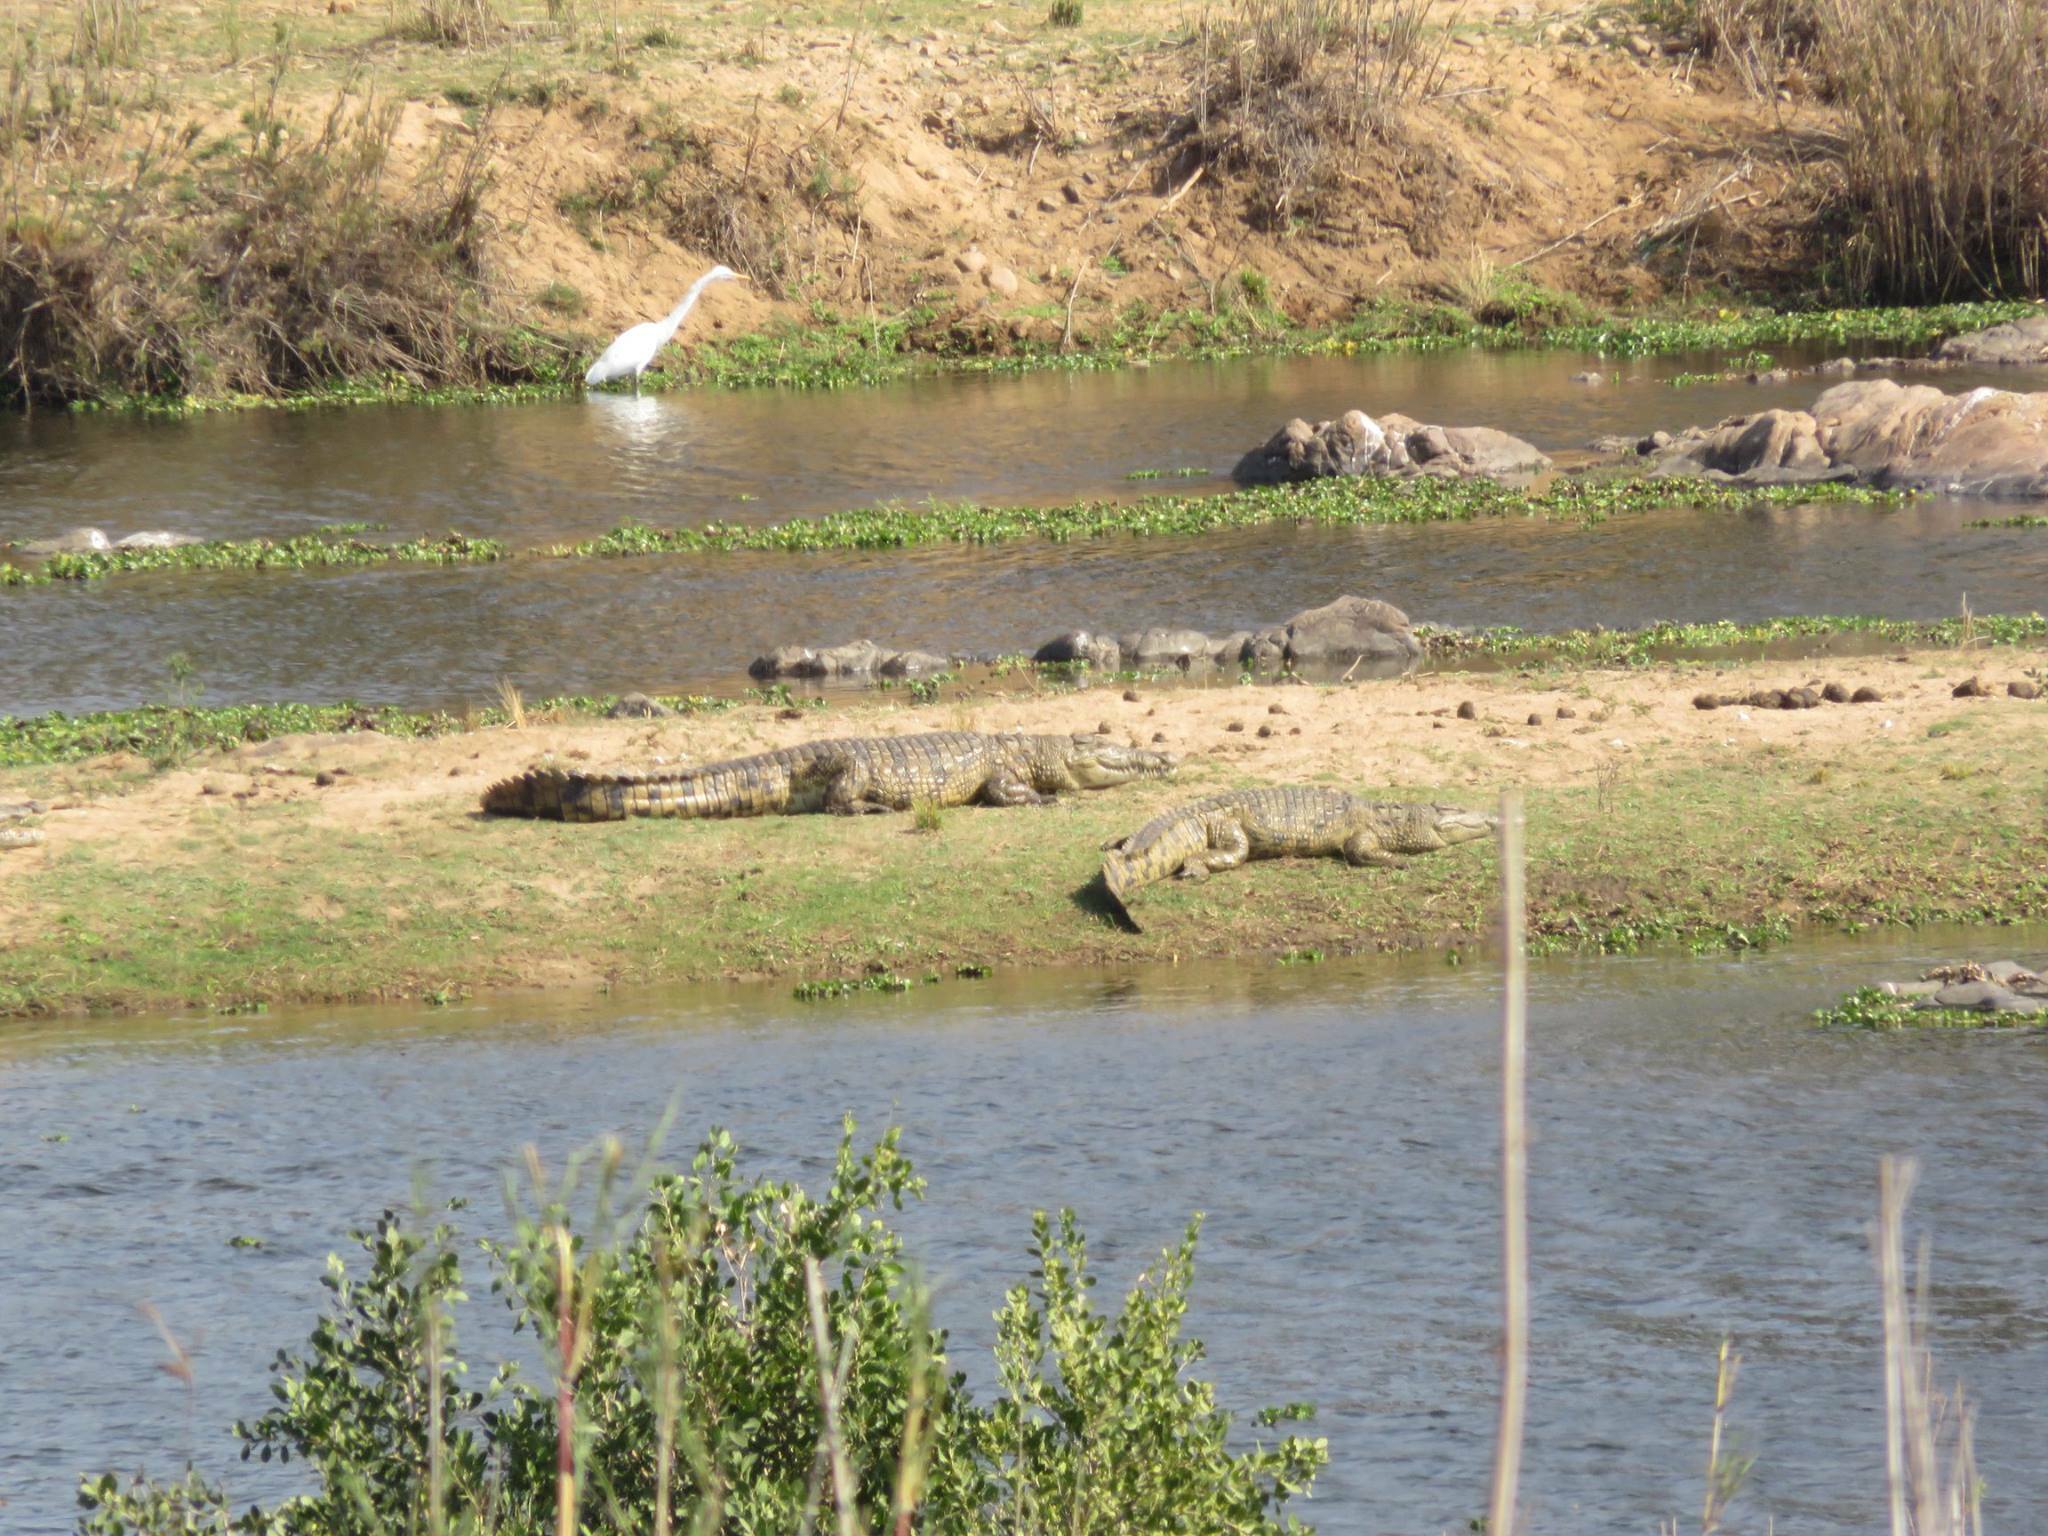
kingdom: Animalia
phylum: Chordata
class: Crocodylia
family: Crocodylidae
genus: Crocodylus
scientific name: Crocodylus niloticus
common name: Nile crocodile
